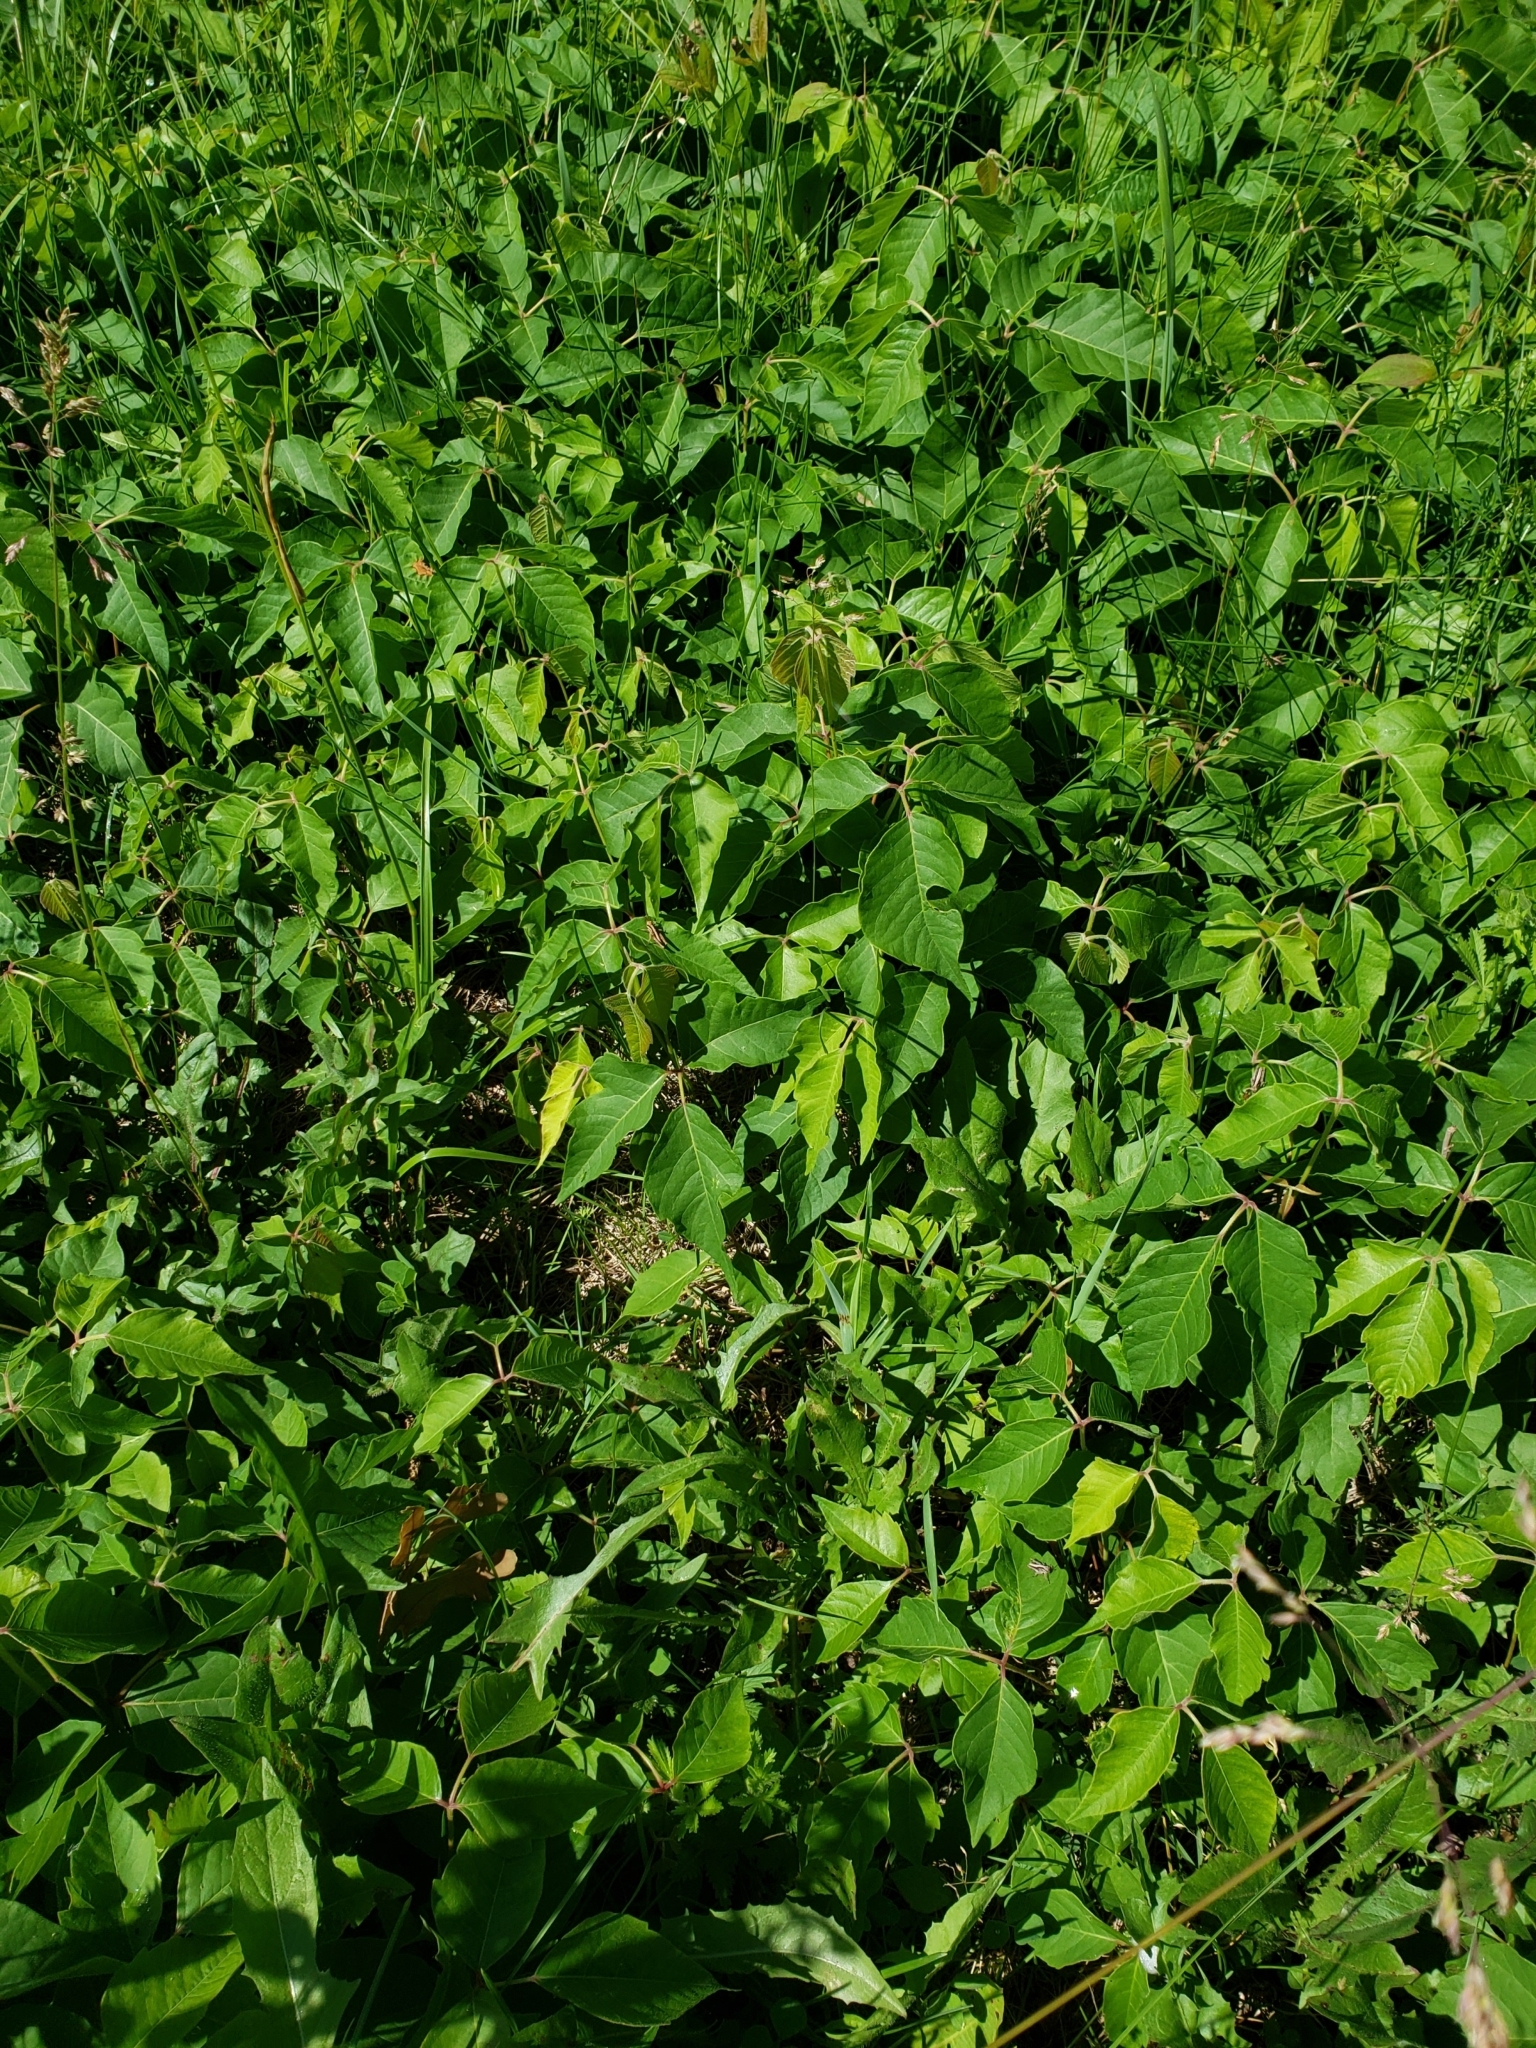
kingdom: Plantae
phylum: Tracheophyta
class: Magnoliopsida
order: Sapindales
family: Anacardiaceae
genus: Toxicodendron
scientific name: Toxicodendron radicans
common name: Poison ivy
